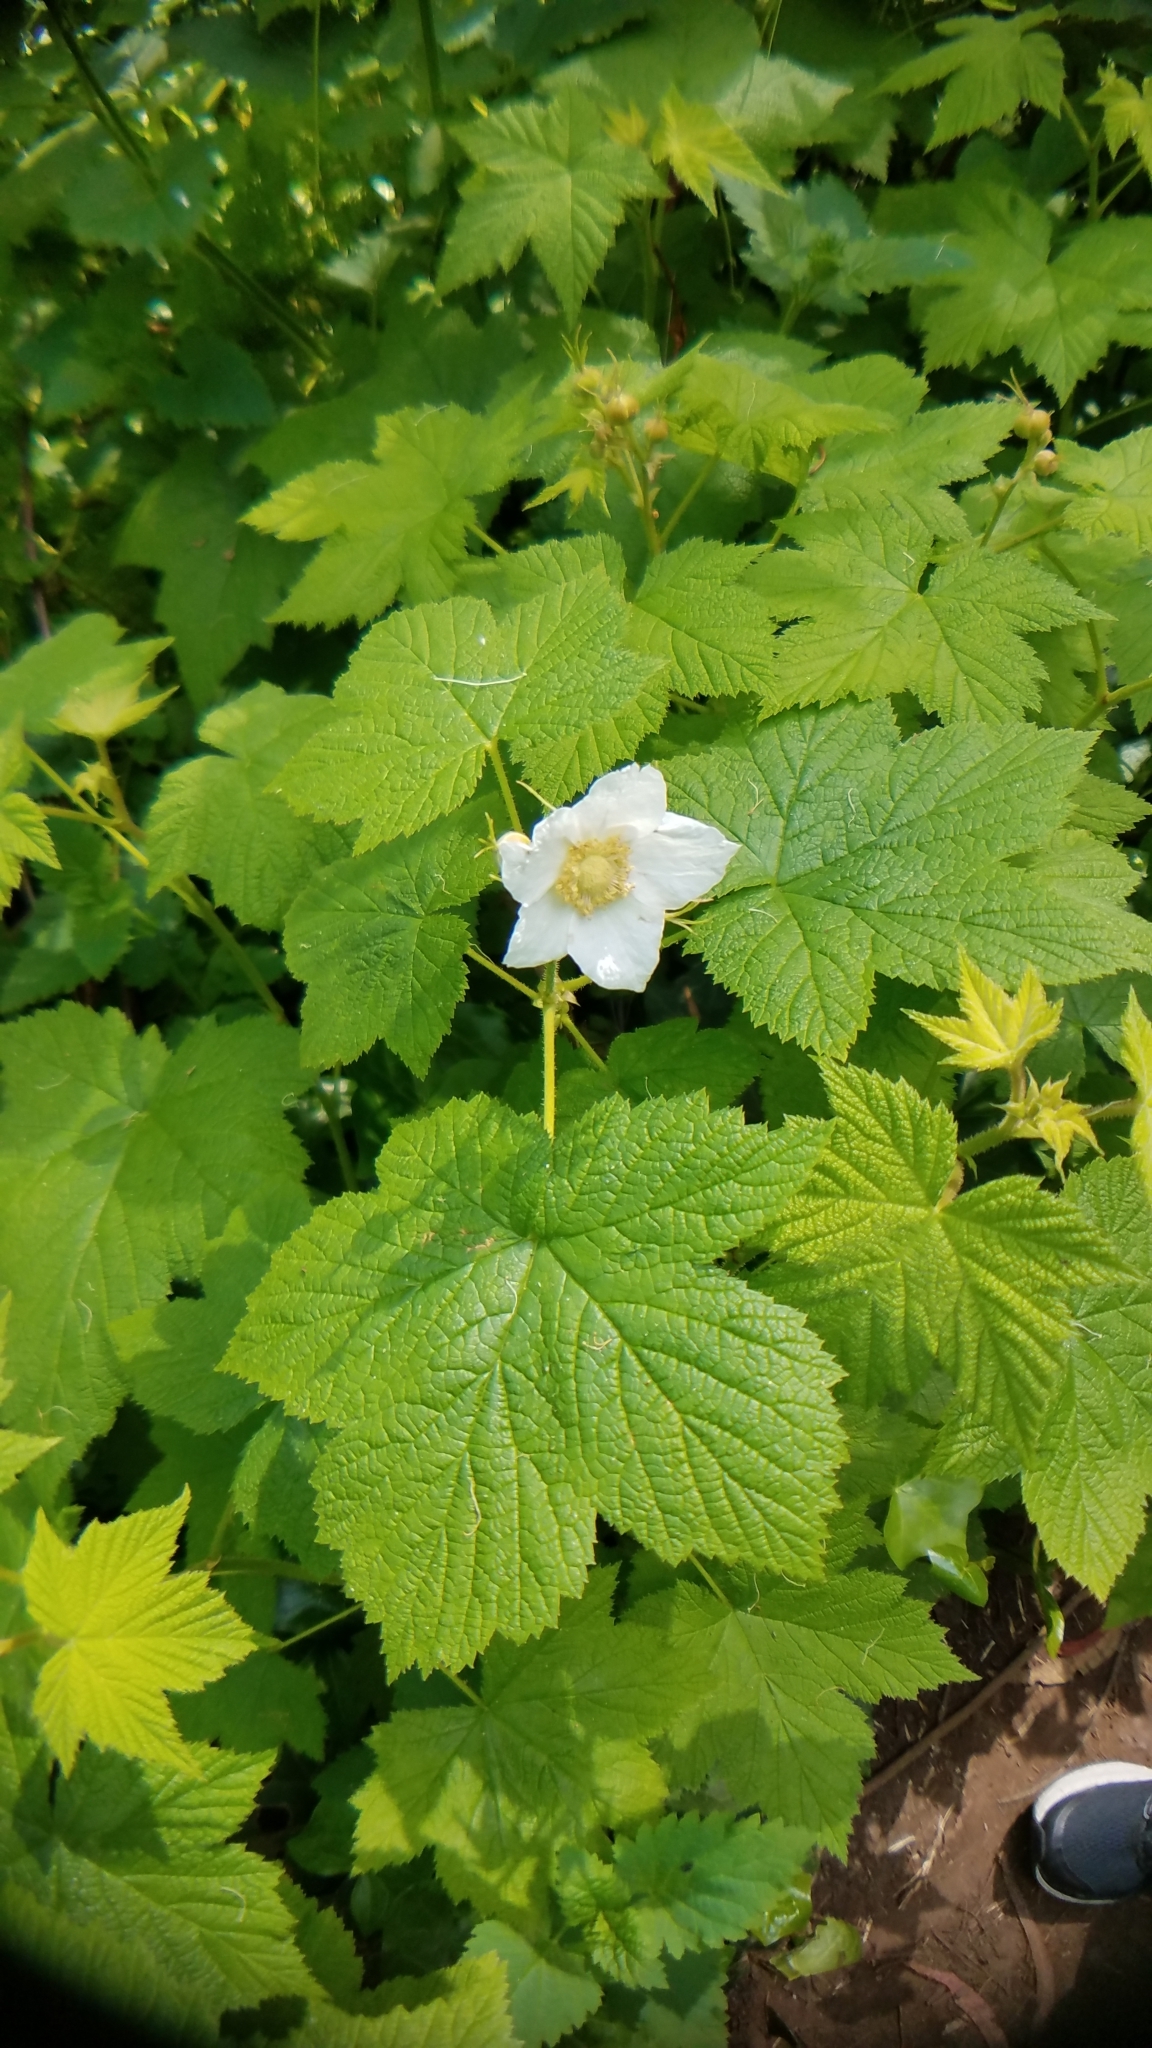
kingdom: Plantae
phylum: Tracheophyta
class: Magnoliopsida
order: Rosales
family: Rosaceae
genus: Rubus
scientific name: Rubus parviflorus
